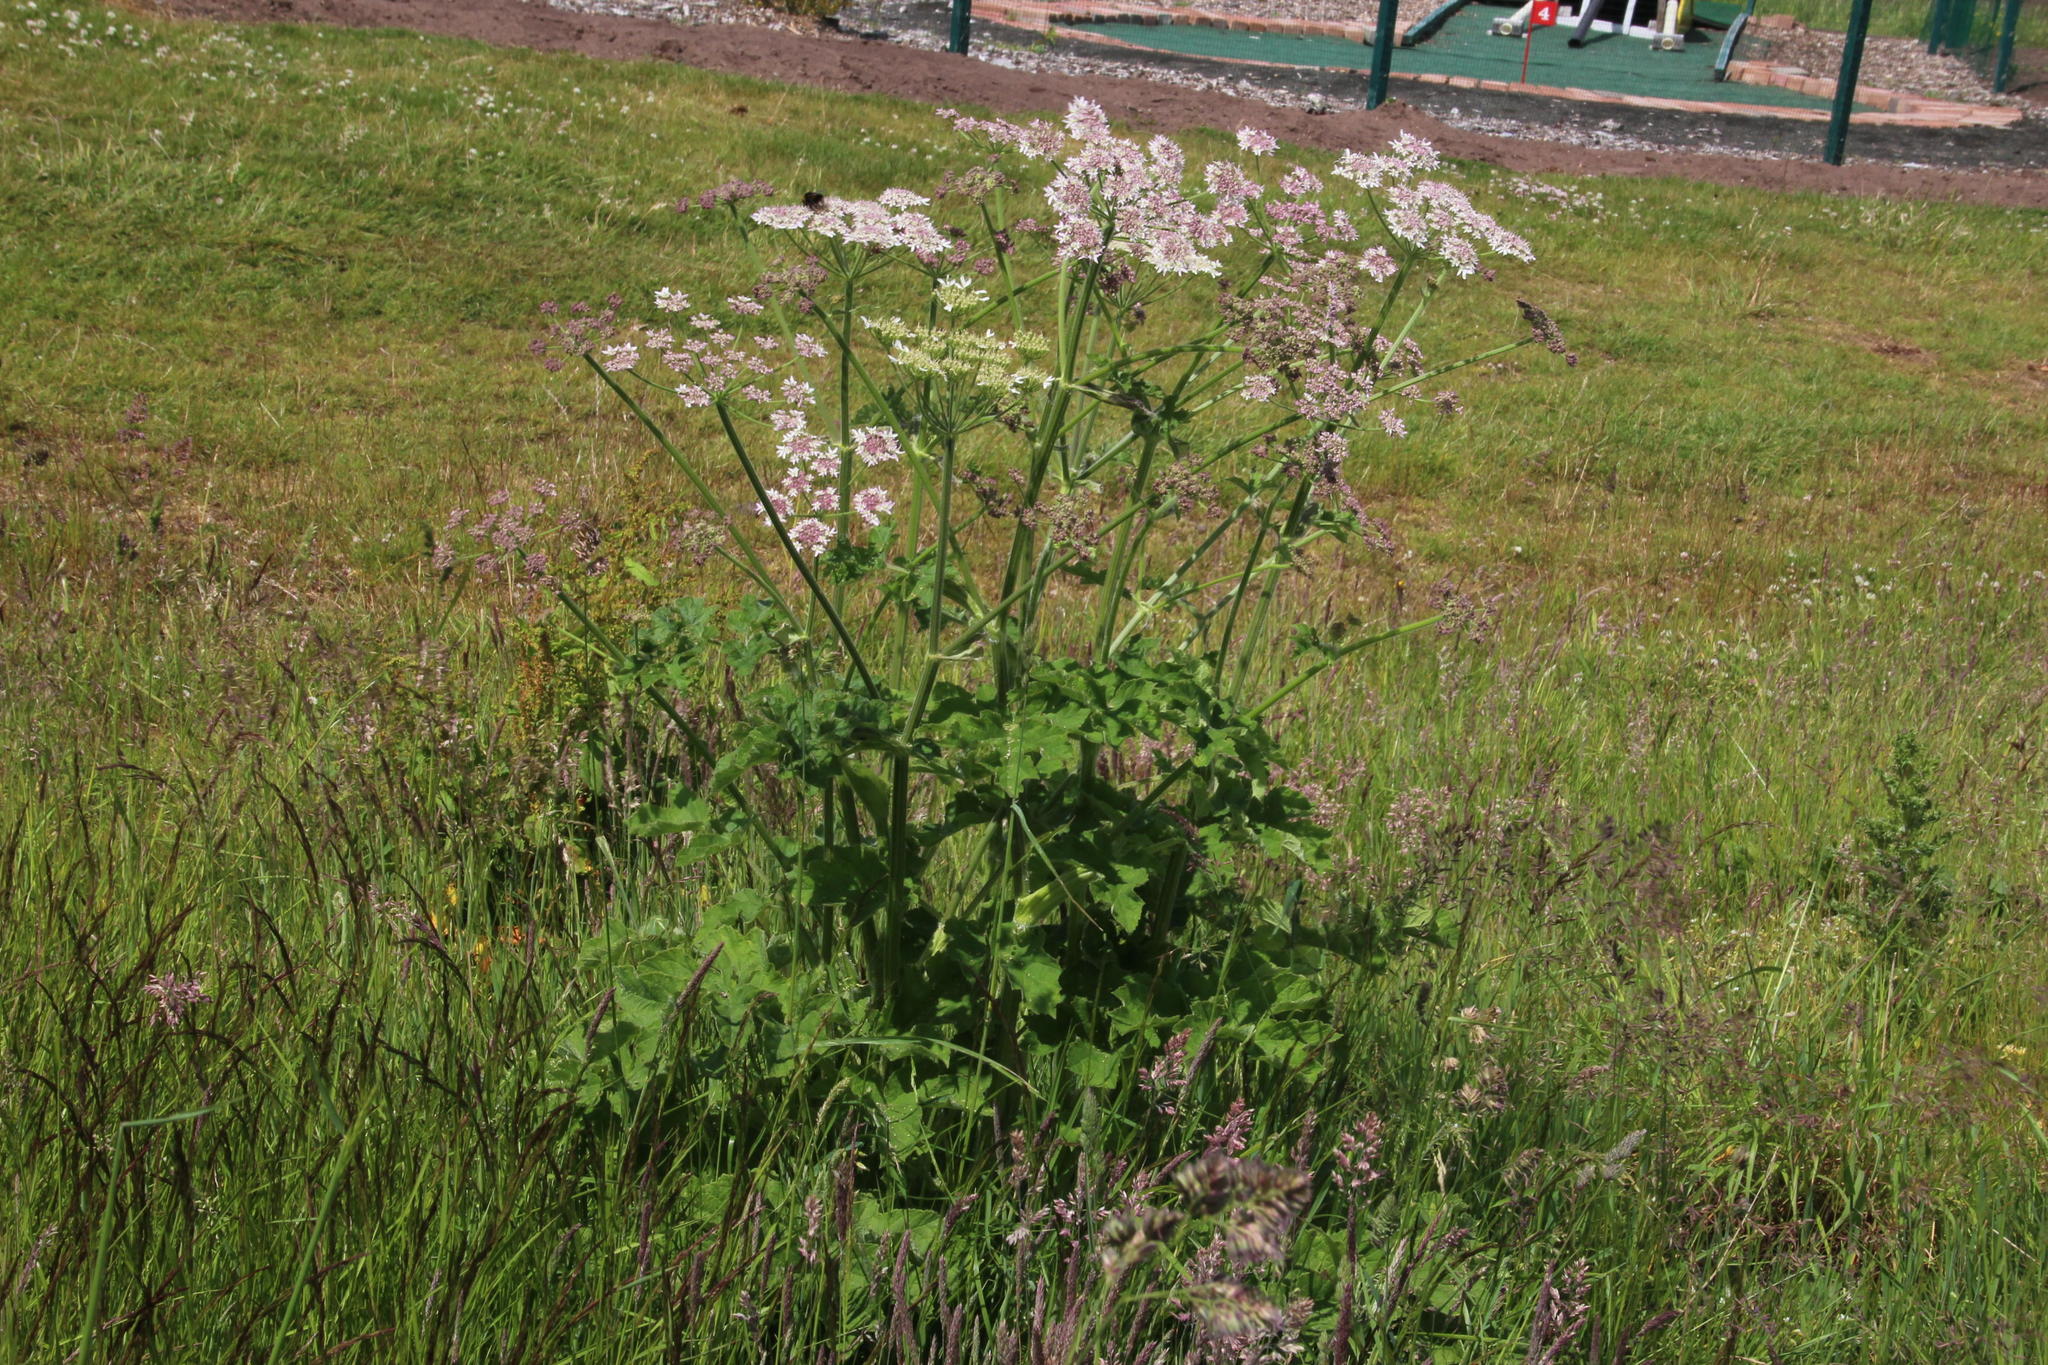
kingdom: Plantae
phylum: Tracheophyta
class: Magnoliopsida
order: Apiales
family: Apiaceae
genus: Heracleum
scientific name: Heracleum sphondylium
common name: Hogweed
